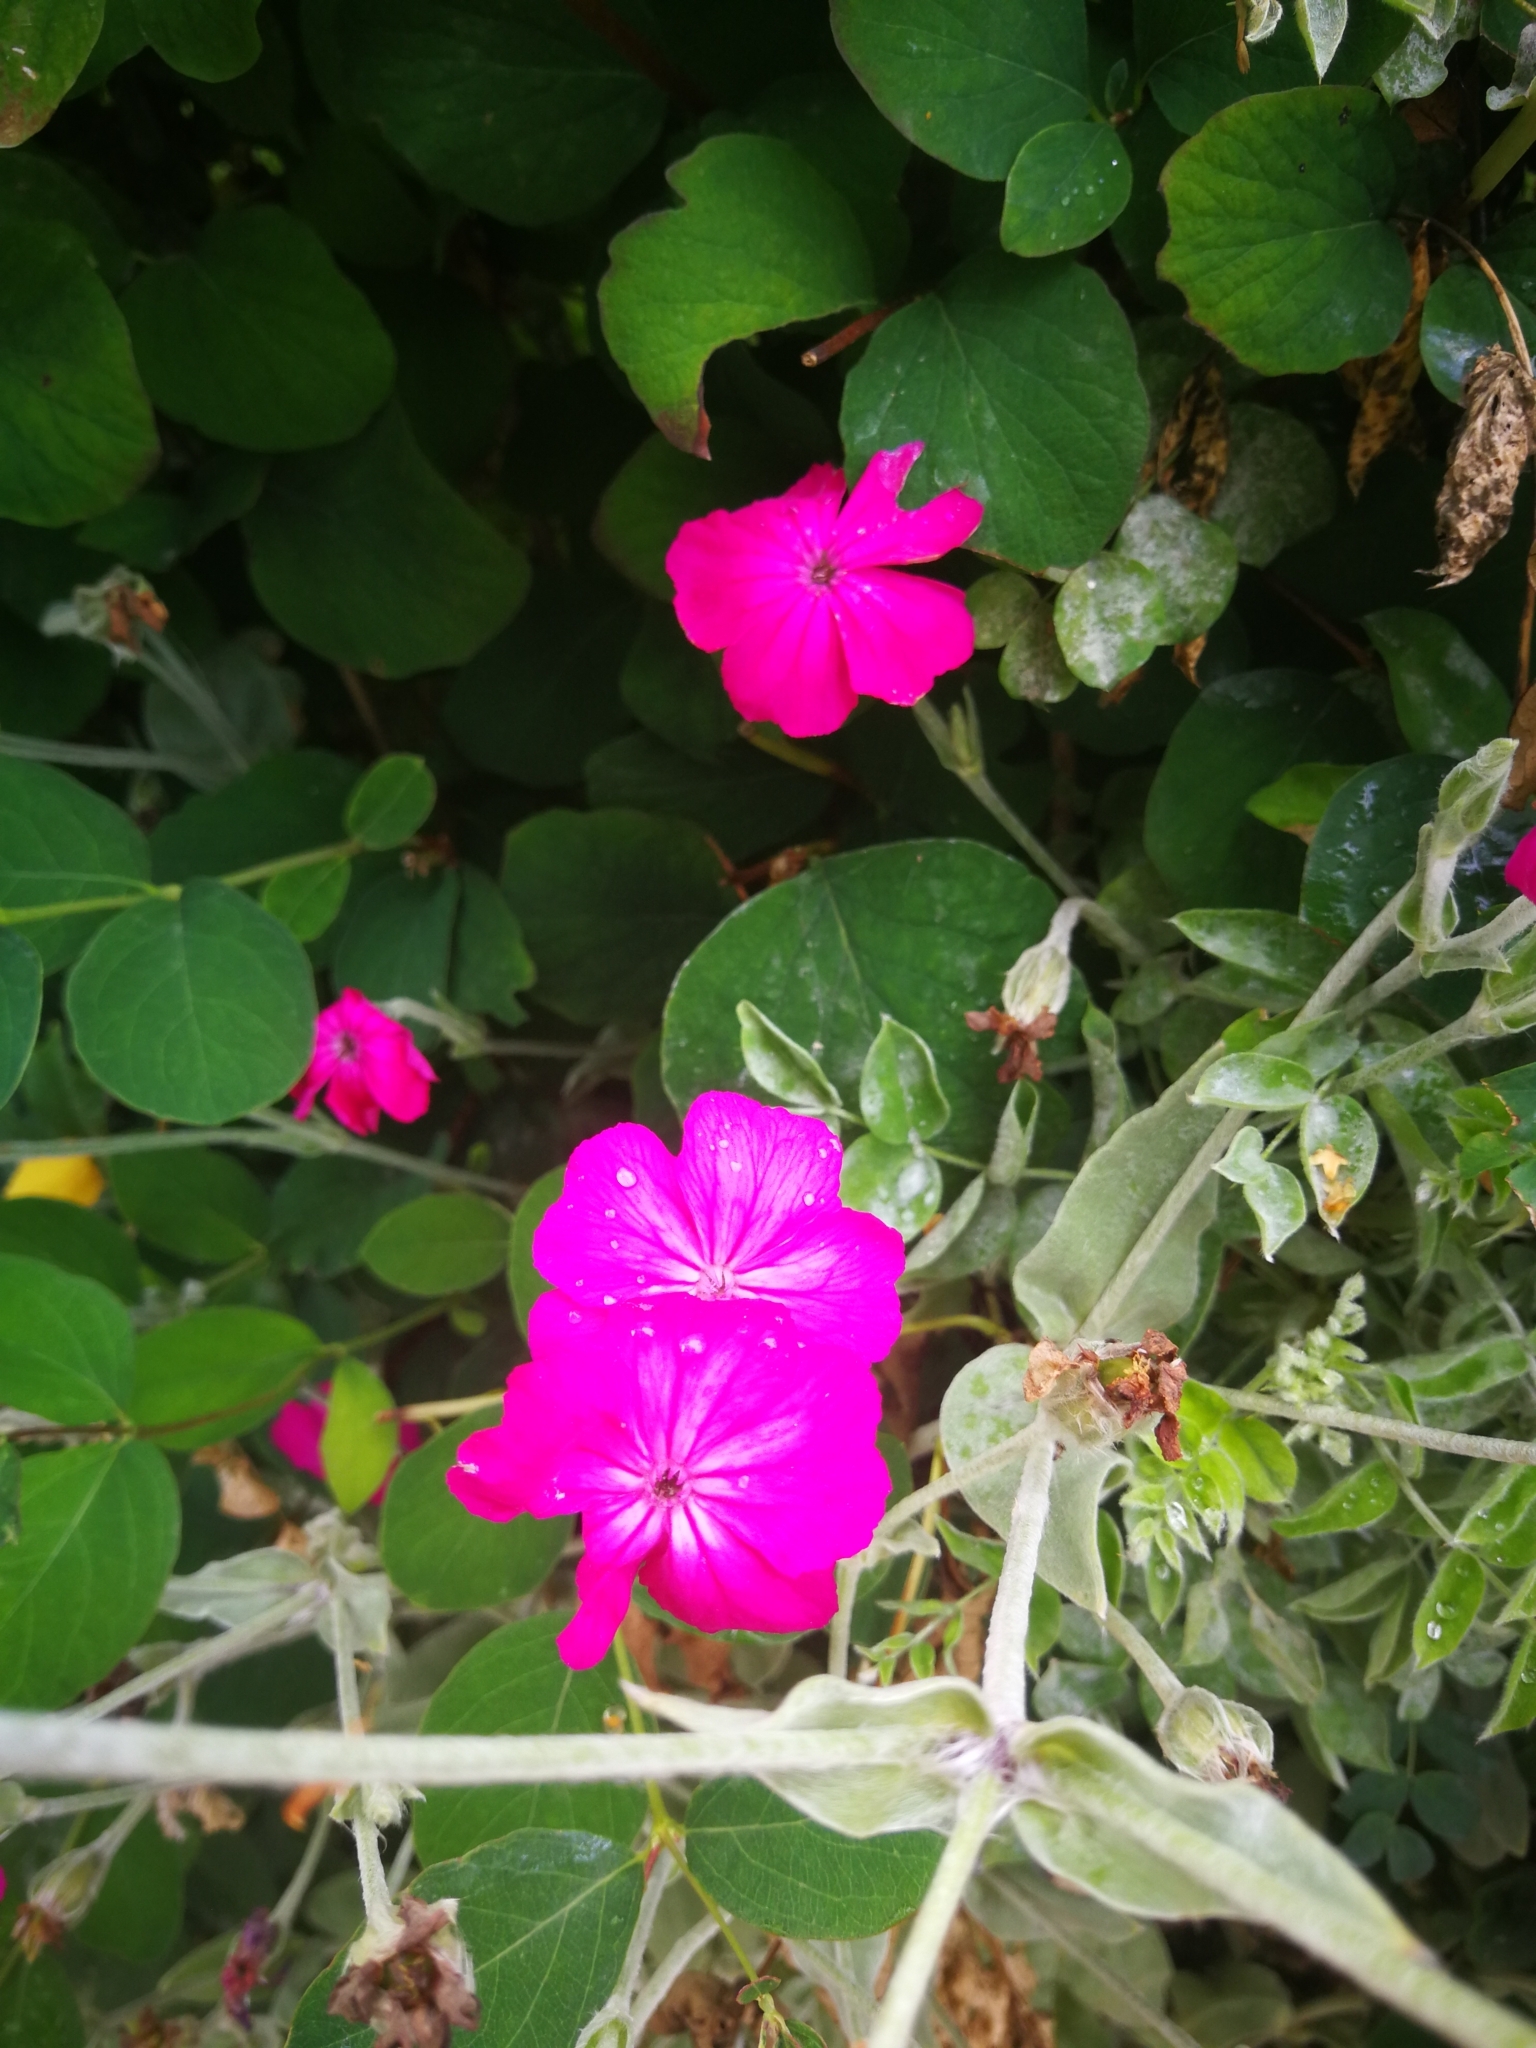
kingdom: Plantae
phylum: Tracheophyta
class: Magnoliopsida
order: Caryophyllales
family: Caryophyllaceae
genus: Silene
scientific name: Silene coronaria
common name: Rose campion
